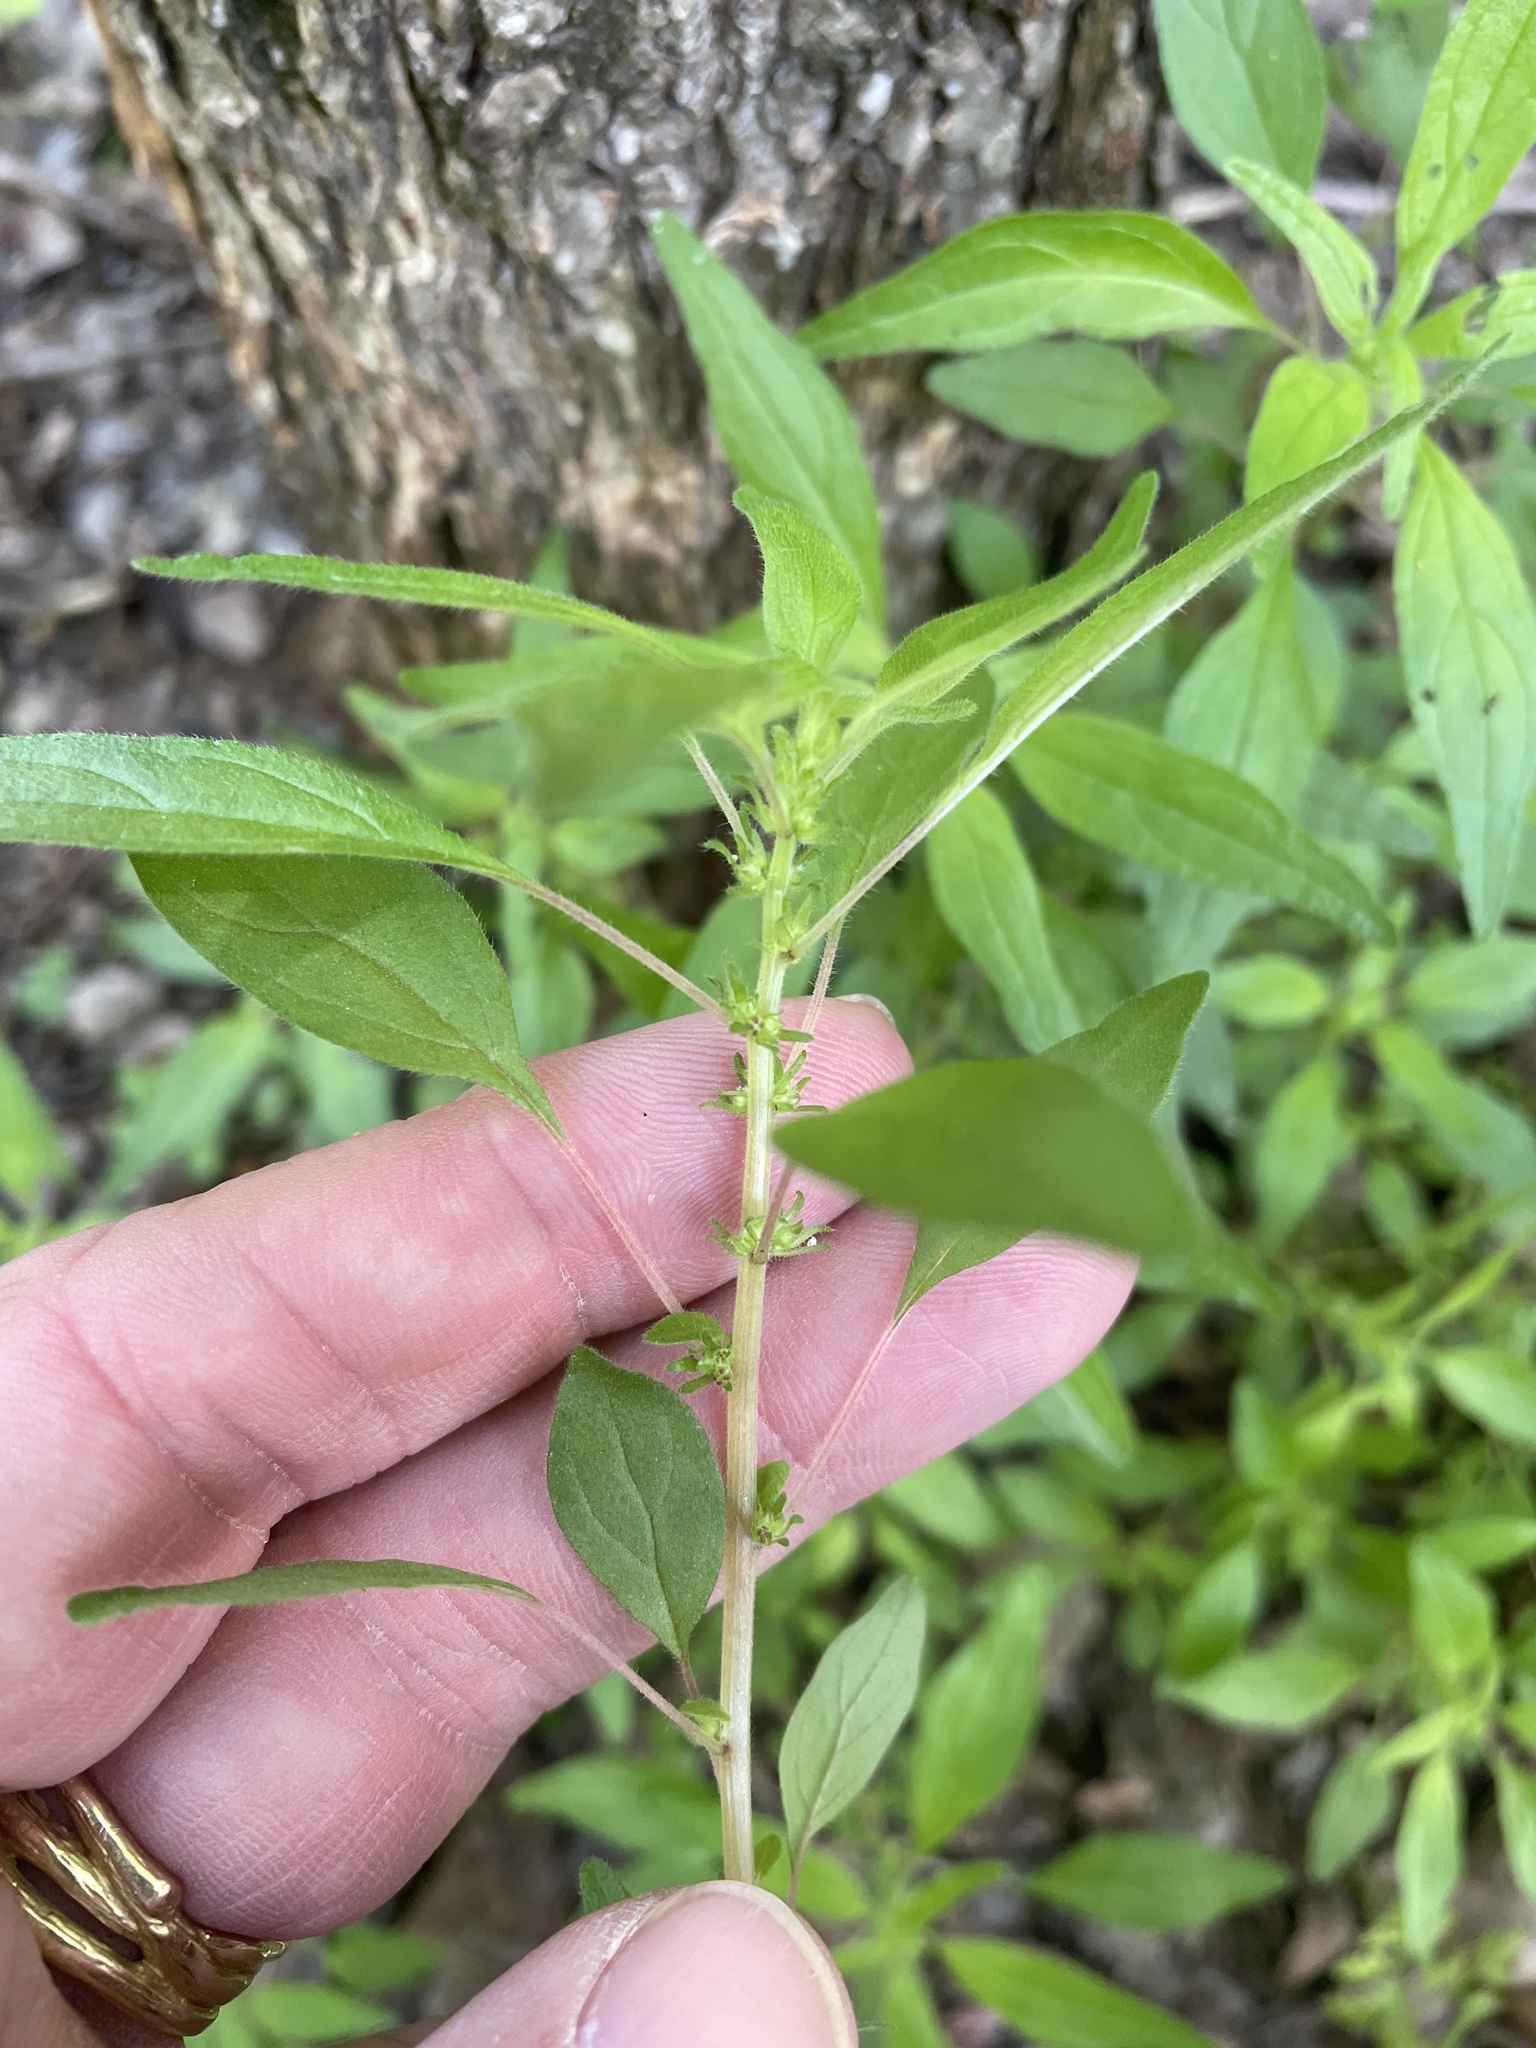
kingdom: Plantae
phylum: Tracheophyta
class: Magnoliopsida
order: Rosales
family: Urticaceae
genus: Parietaria
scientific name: Parietaria pensylvanica
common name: Pennsylvania pellitory
